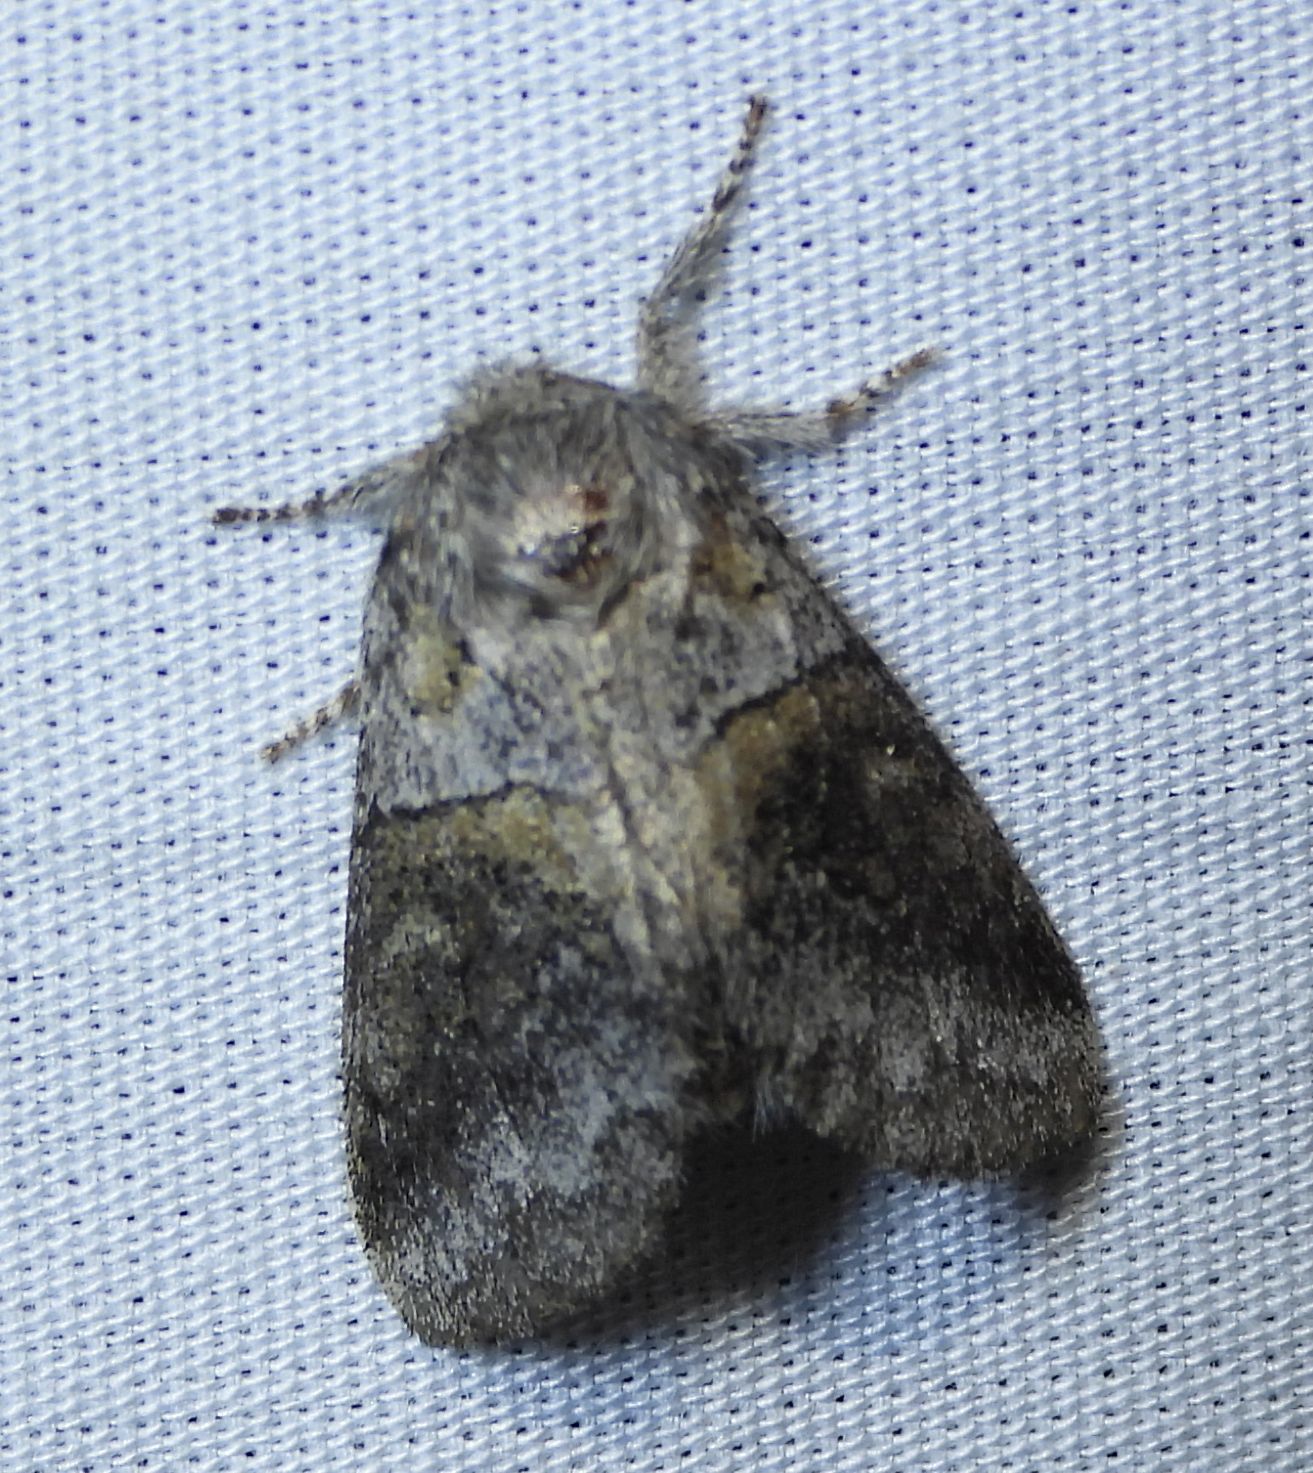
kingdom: Animalia
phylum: Arthropoda
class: Insecta
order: Lepidoptera
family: Notodontidae
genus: Gluphisia
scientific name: Gluphisia septentrionis
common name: Common gluphisia
